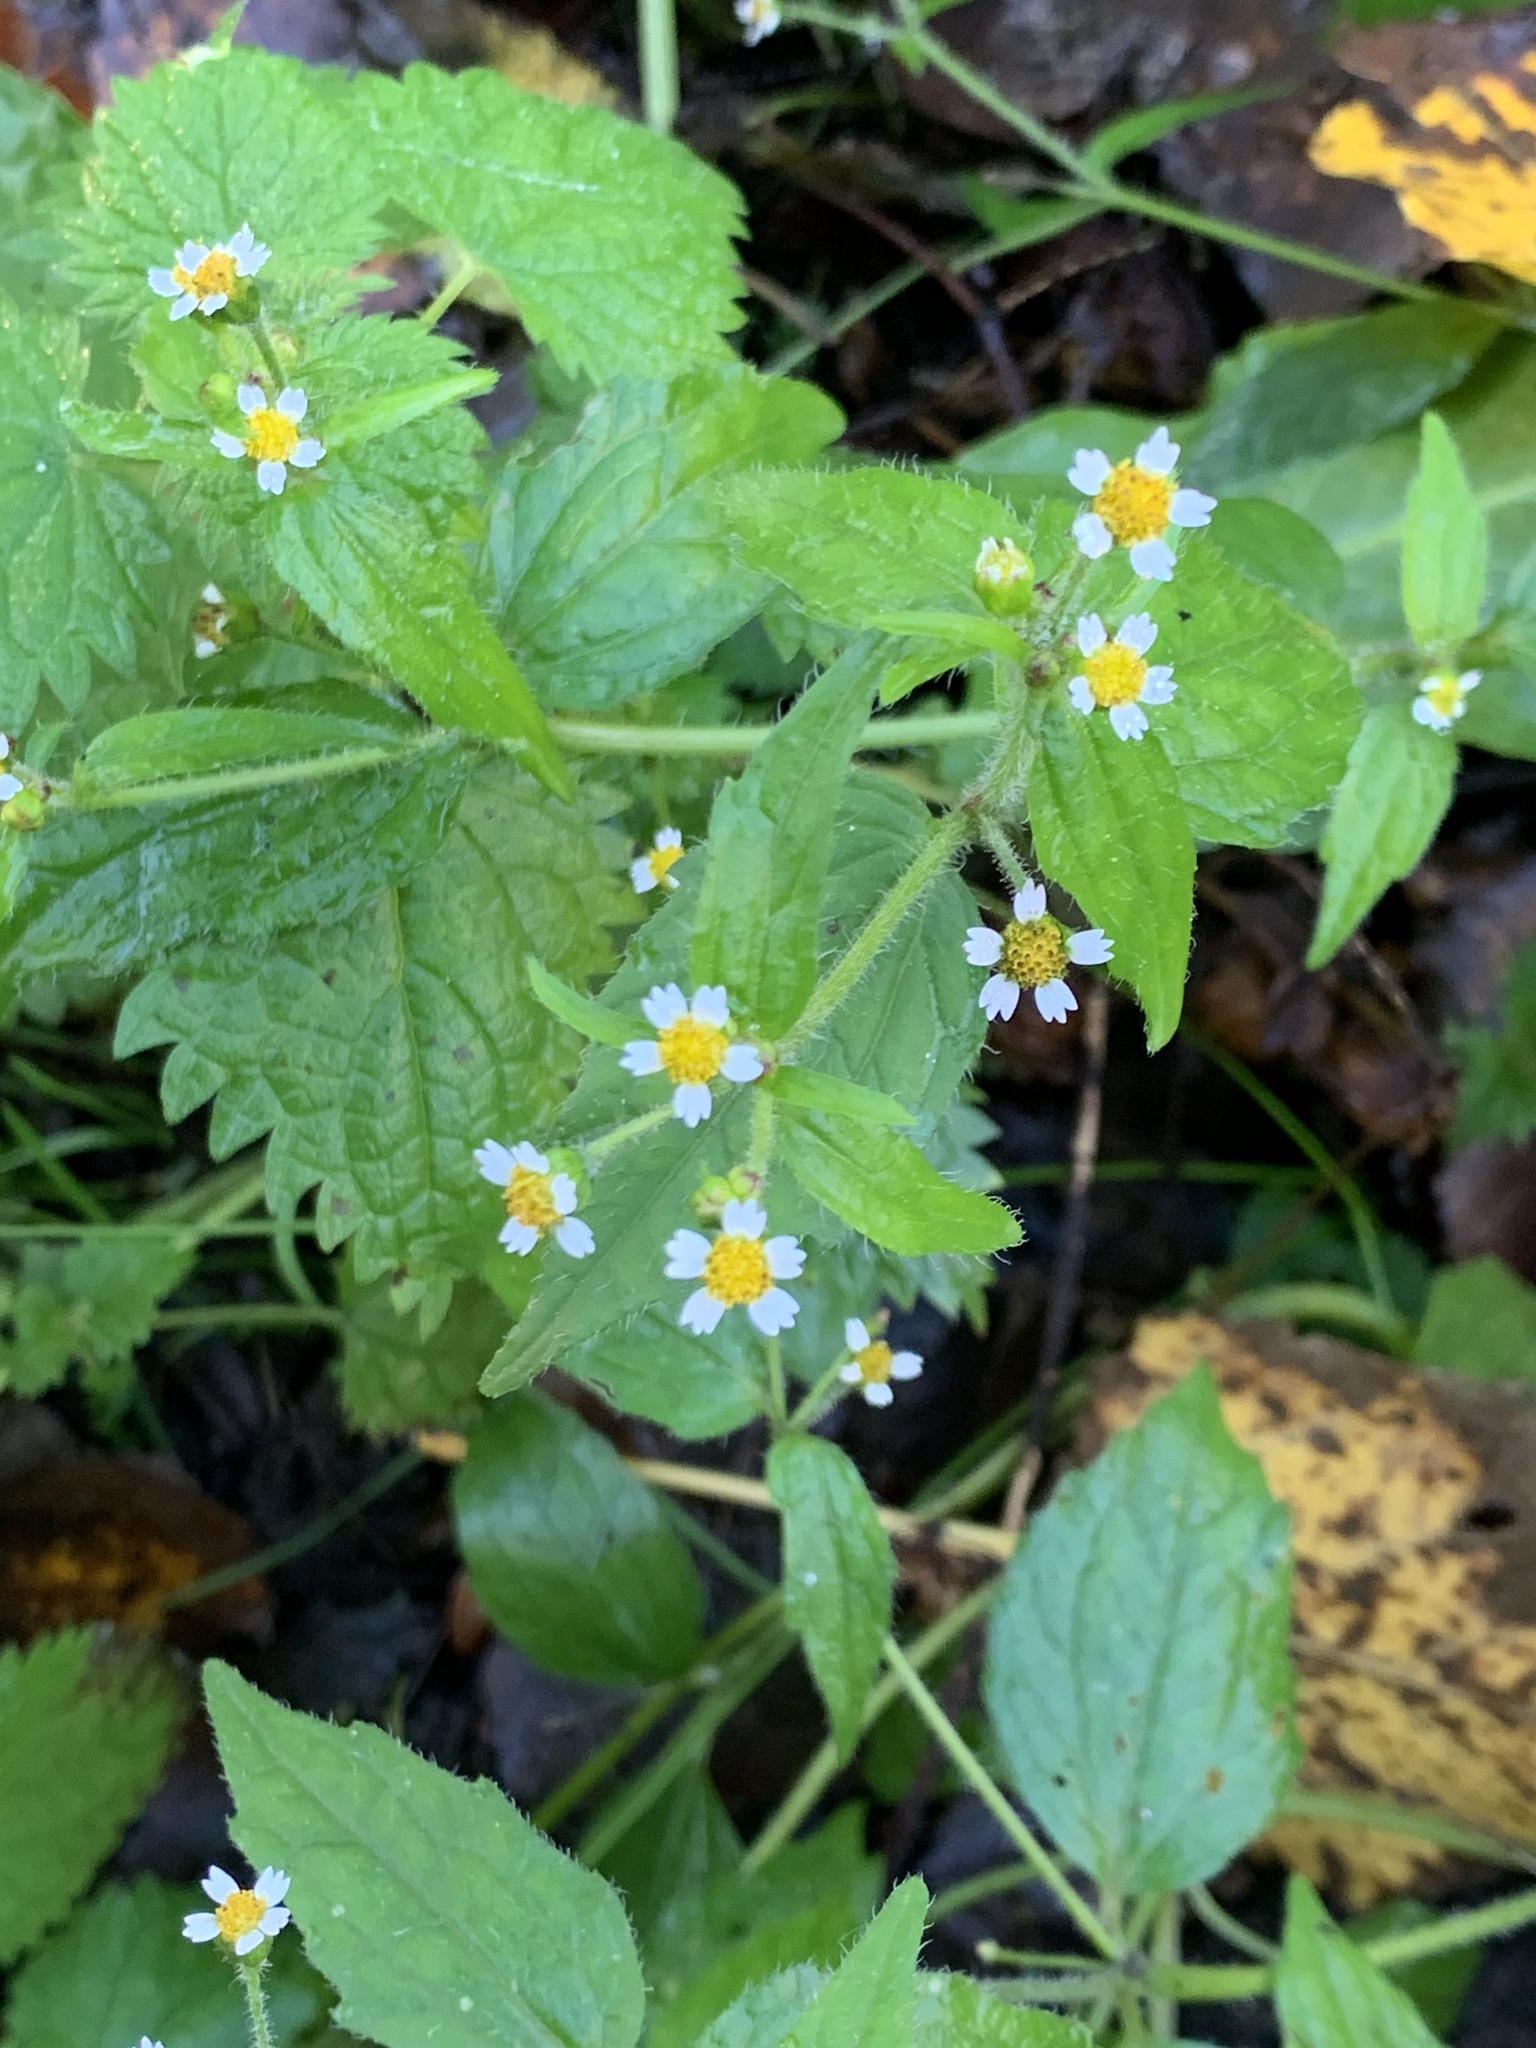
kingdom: Plantae
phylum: Tracheophyta
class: Magnoliopsida
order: Asterales
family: Asteraceae
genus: Galinsoga
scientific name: Galinsoga quadriradiata
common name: Shaggy soldier
